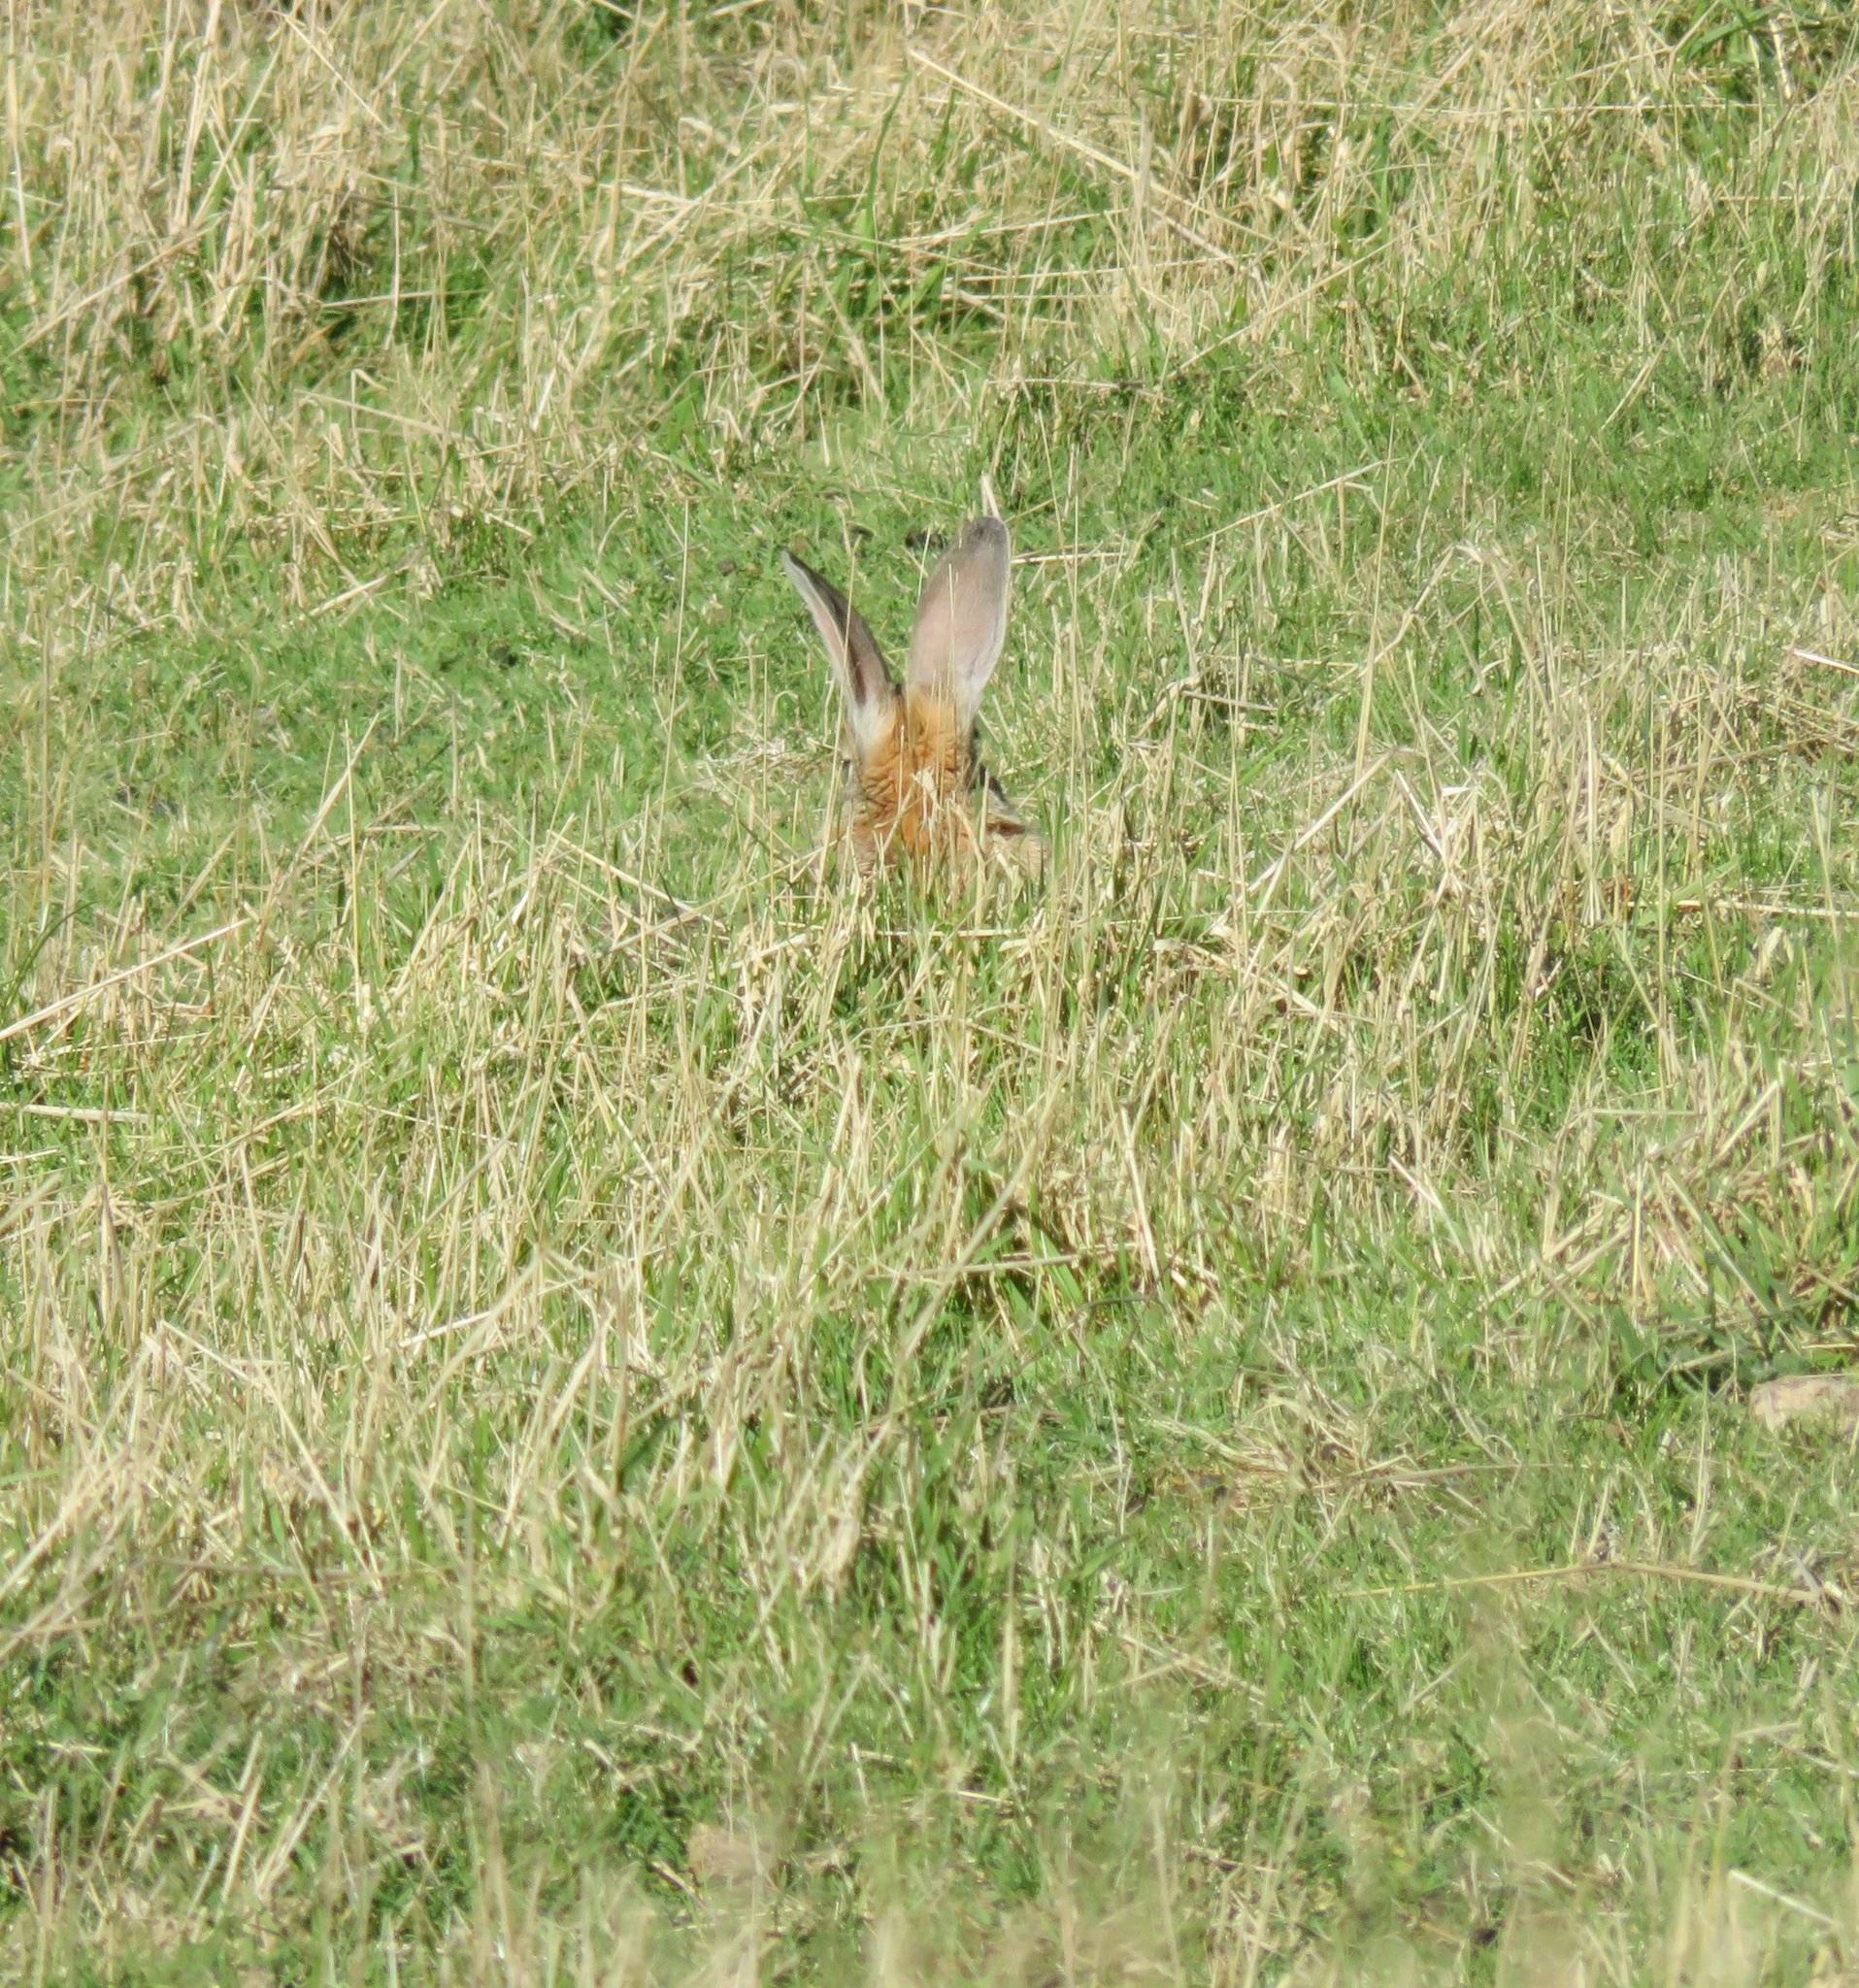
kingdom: Animalia
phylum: Chordata
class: Mammalia
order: Lagomorpha
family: Leporidae
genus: Lepus
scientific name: Lepus europaeus
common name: European hare
